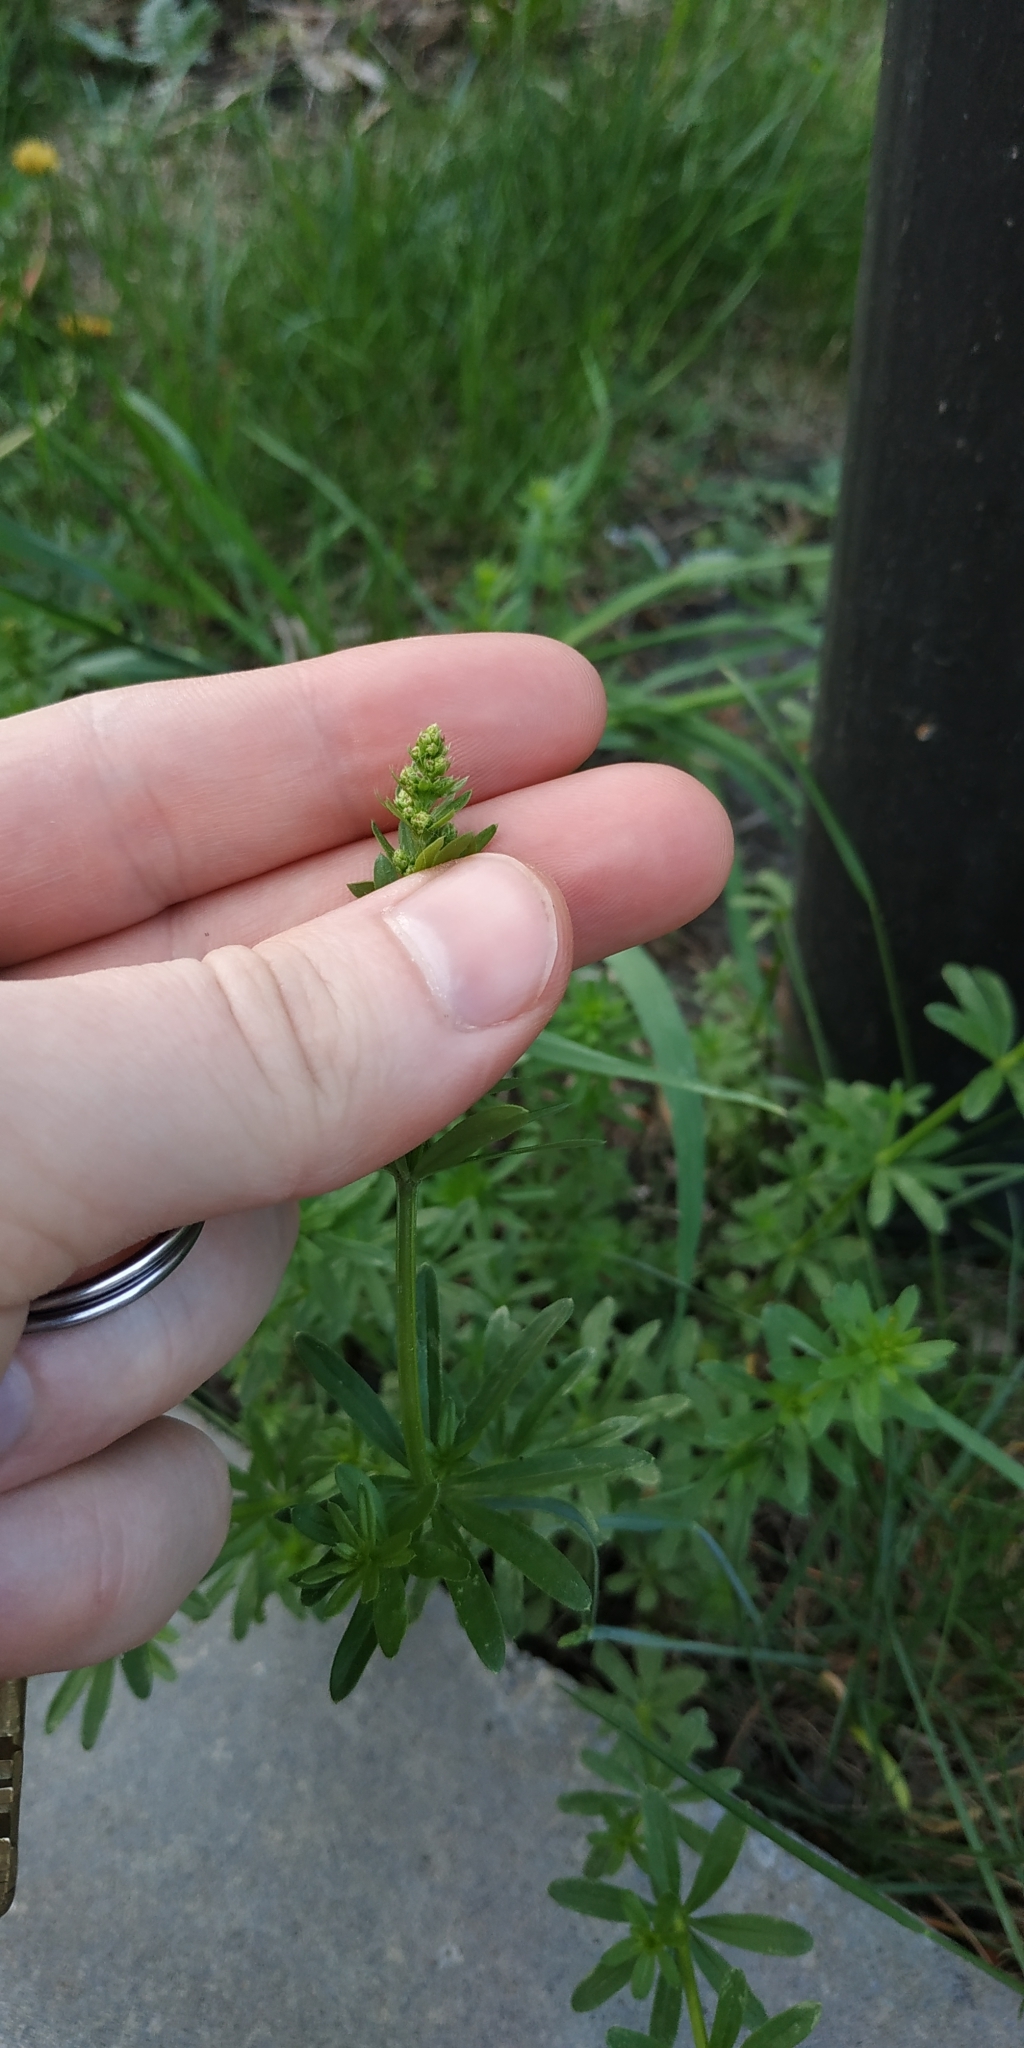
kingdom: Plantae
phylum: Tracheophyta
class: Magnoliopsida
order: Gentianales
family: Rubiaceae
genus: Galium
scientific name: Galium mollugo
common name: Hedge bedstraw
